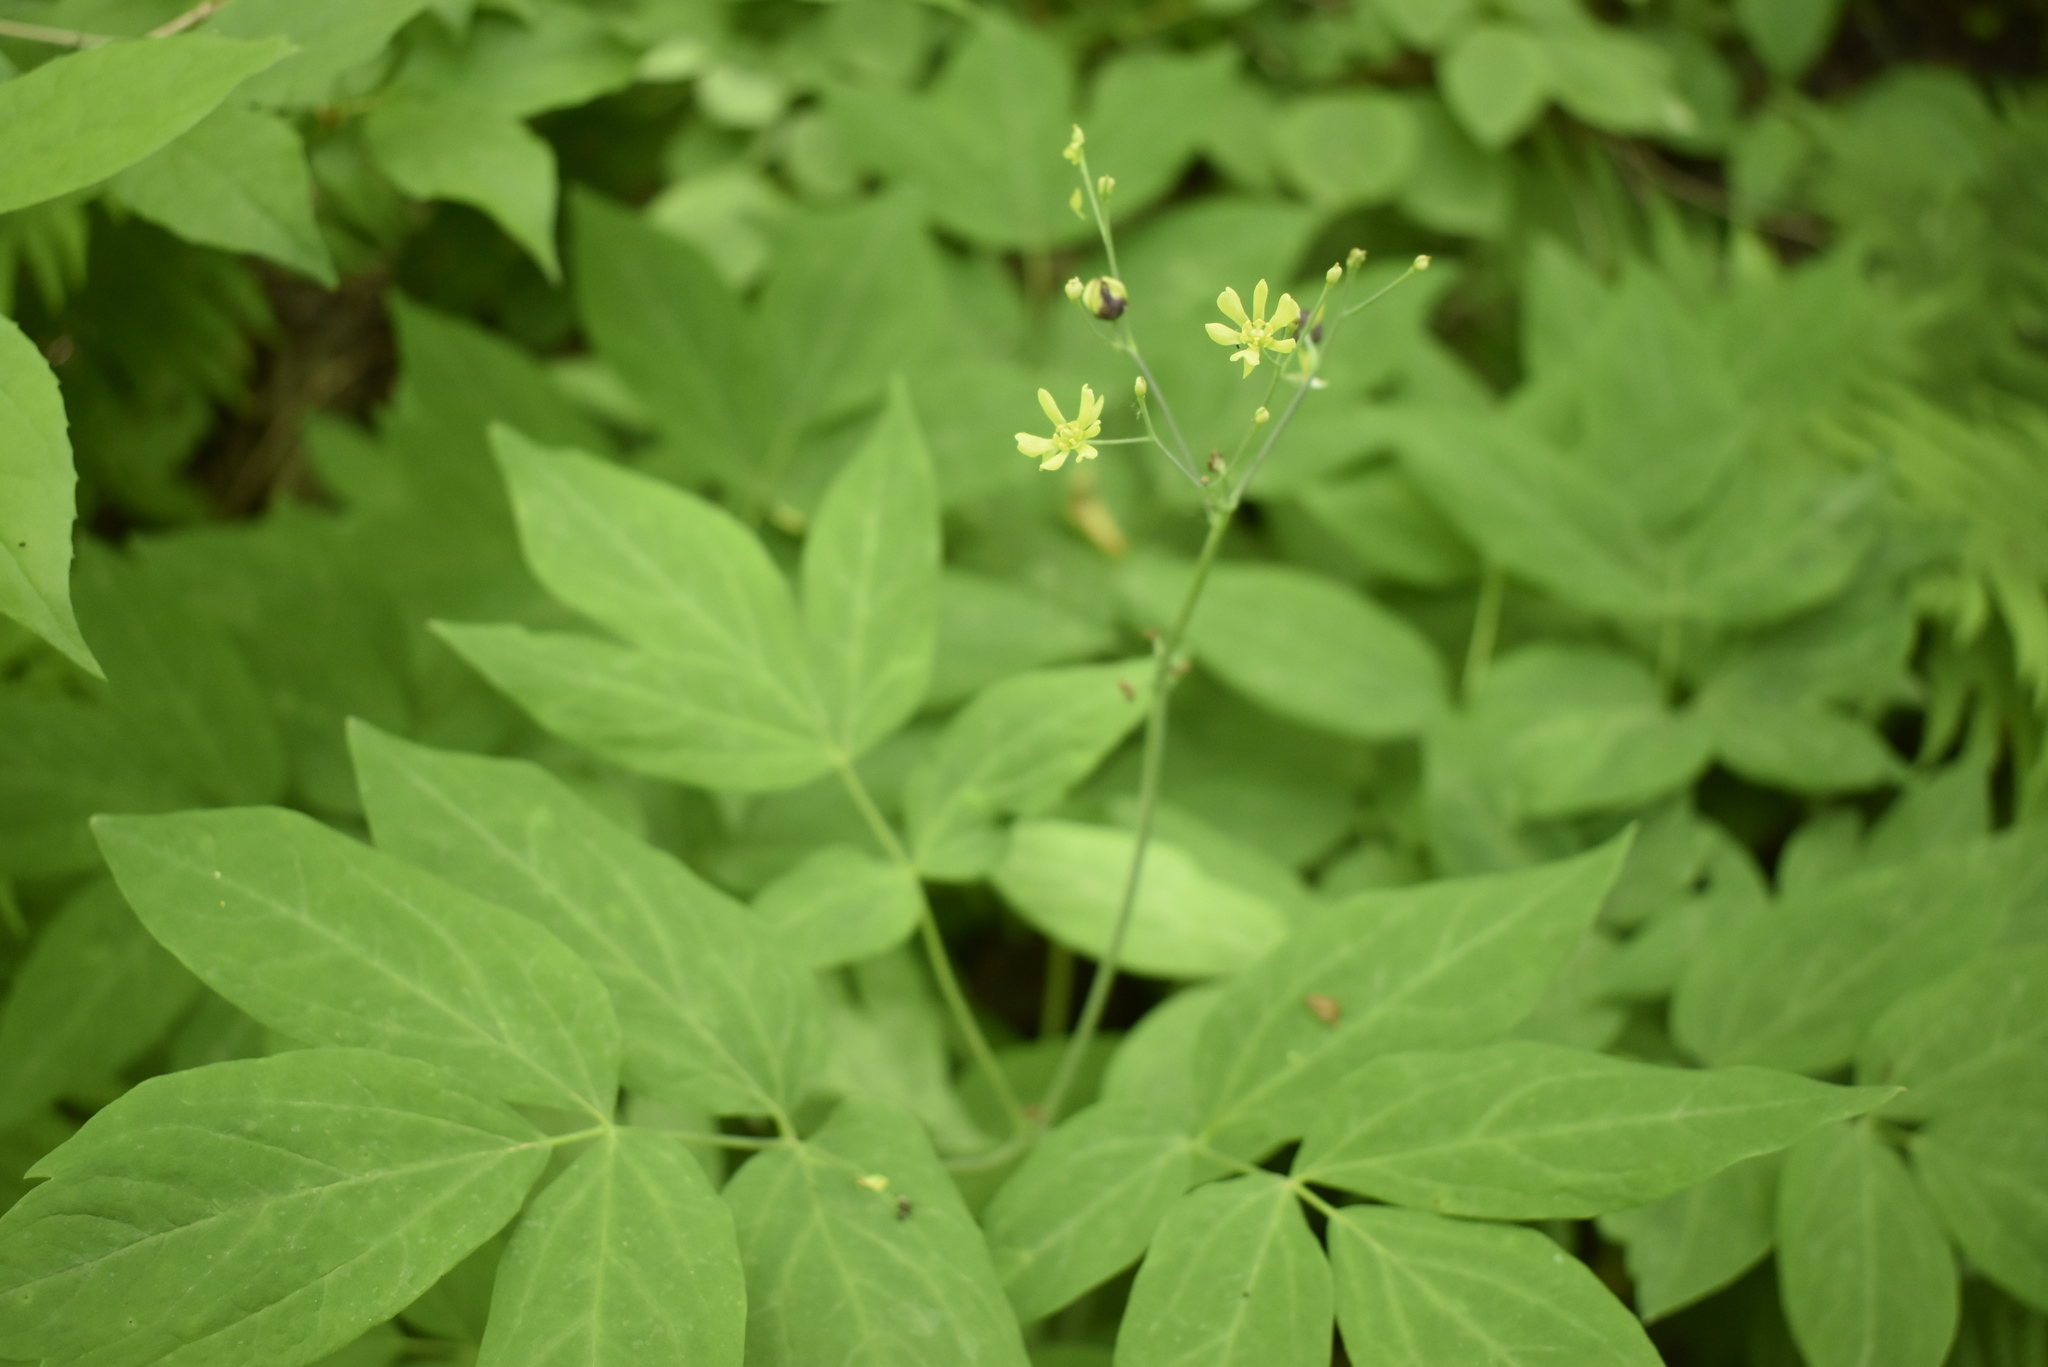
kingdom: Plantae
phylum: Tracheophyta
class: Magnoliopsida
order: Ranunculales
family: Berberidaceae
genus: Caulophyllum
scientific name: Caulophyllum robustum
